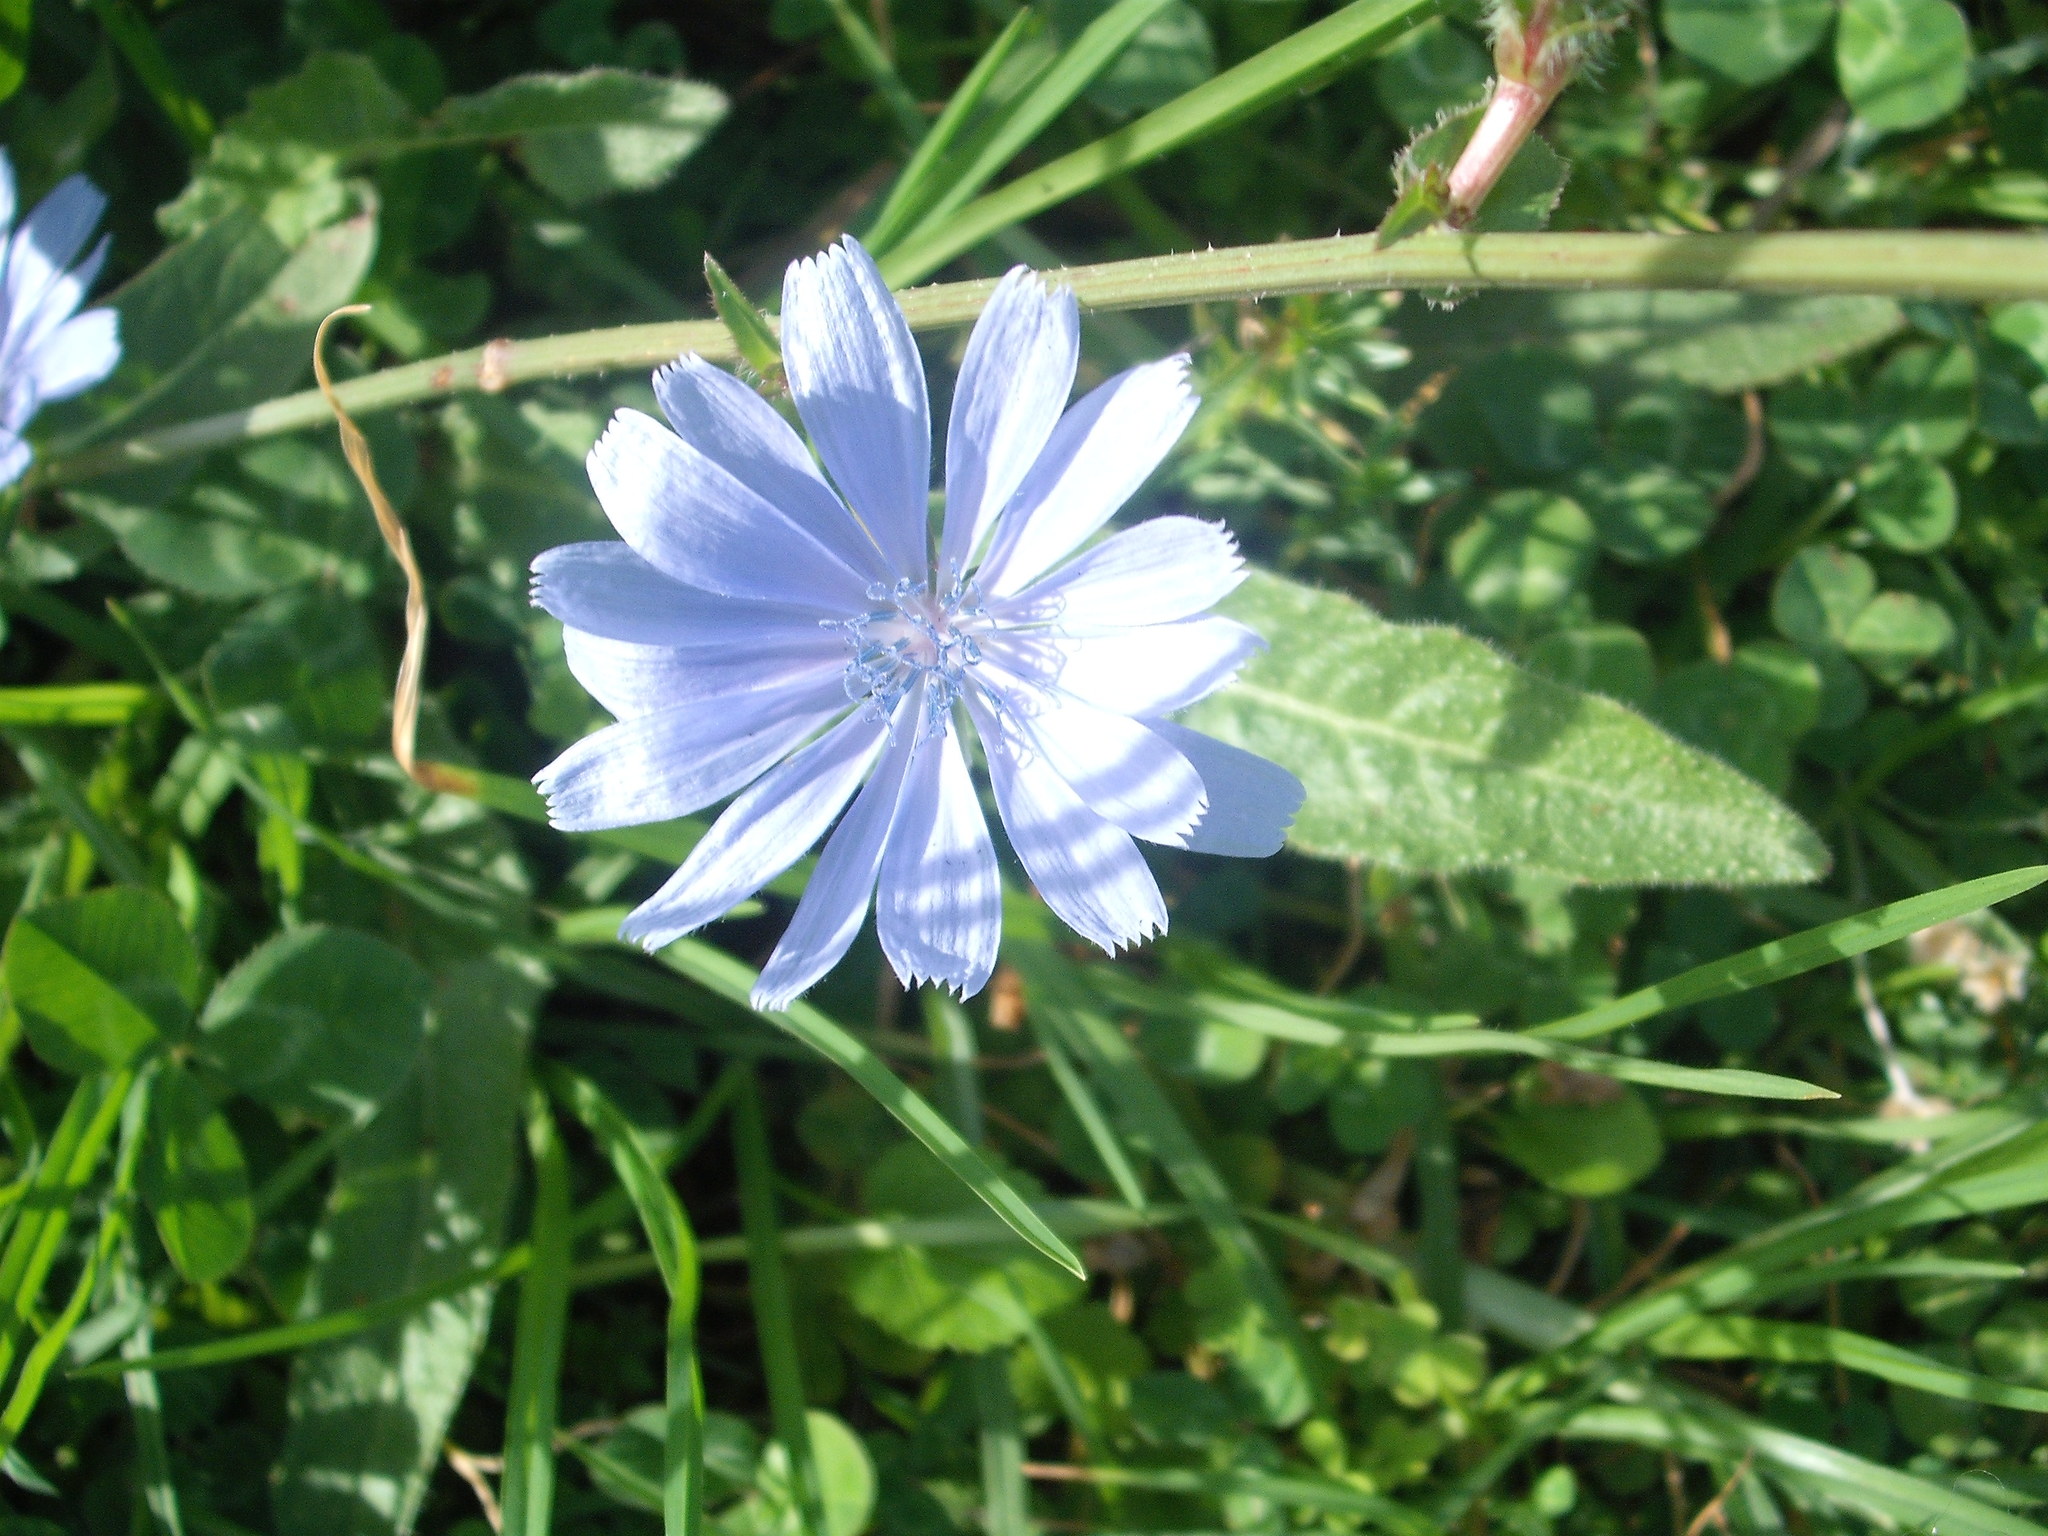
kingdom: Plantae
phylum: Tracheophyta
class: Magnoliopsida
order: Asterales
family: Asteraceae
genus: Cichorium
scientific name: Cichorium intybus
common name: Chicory
